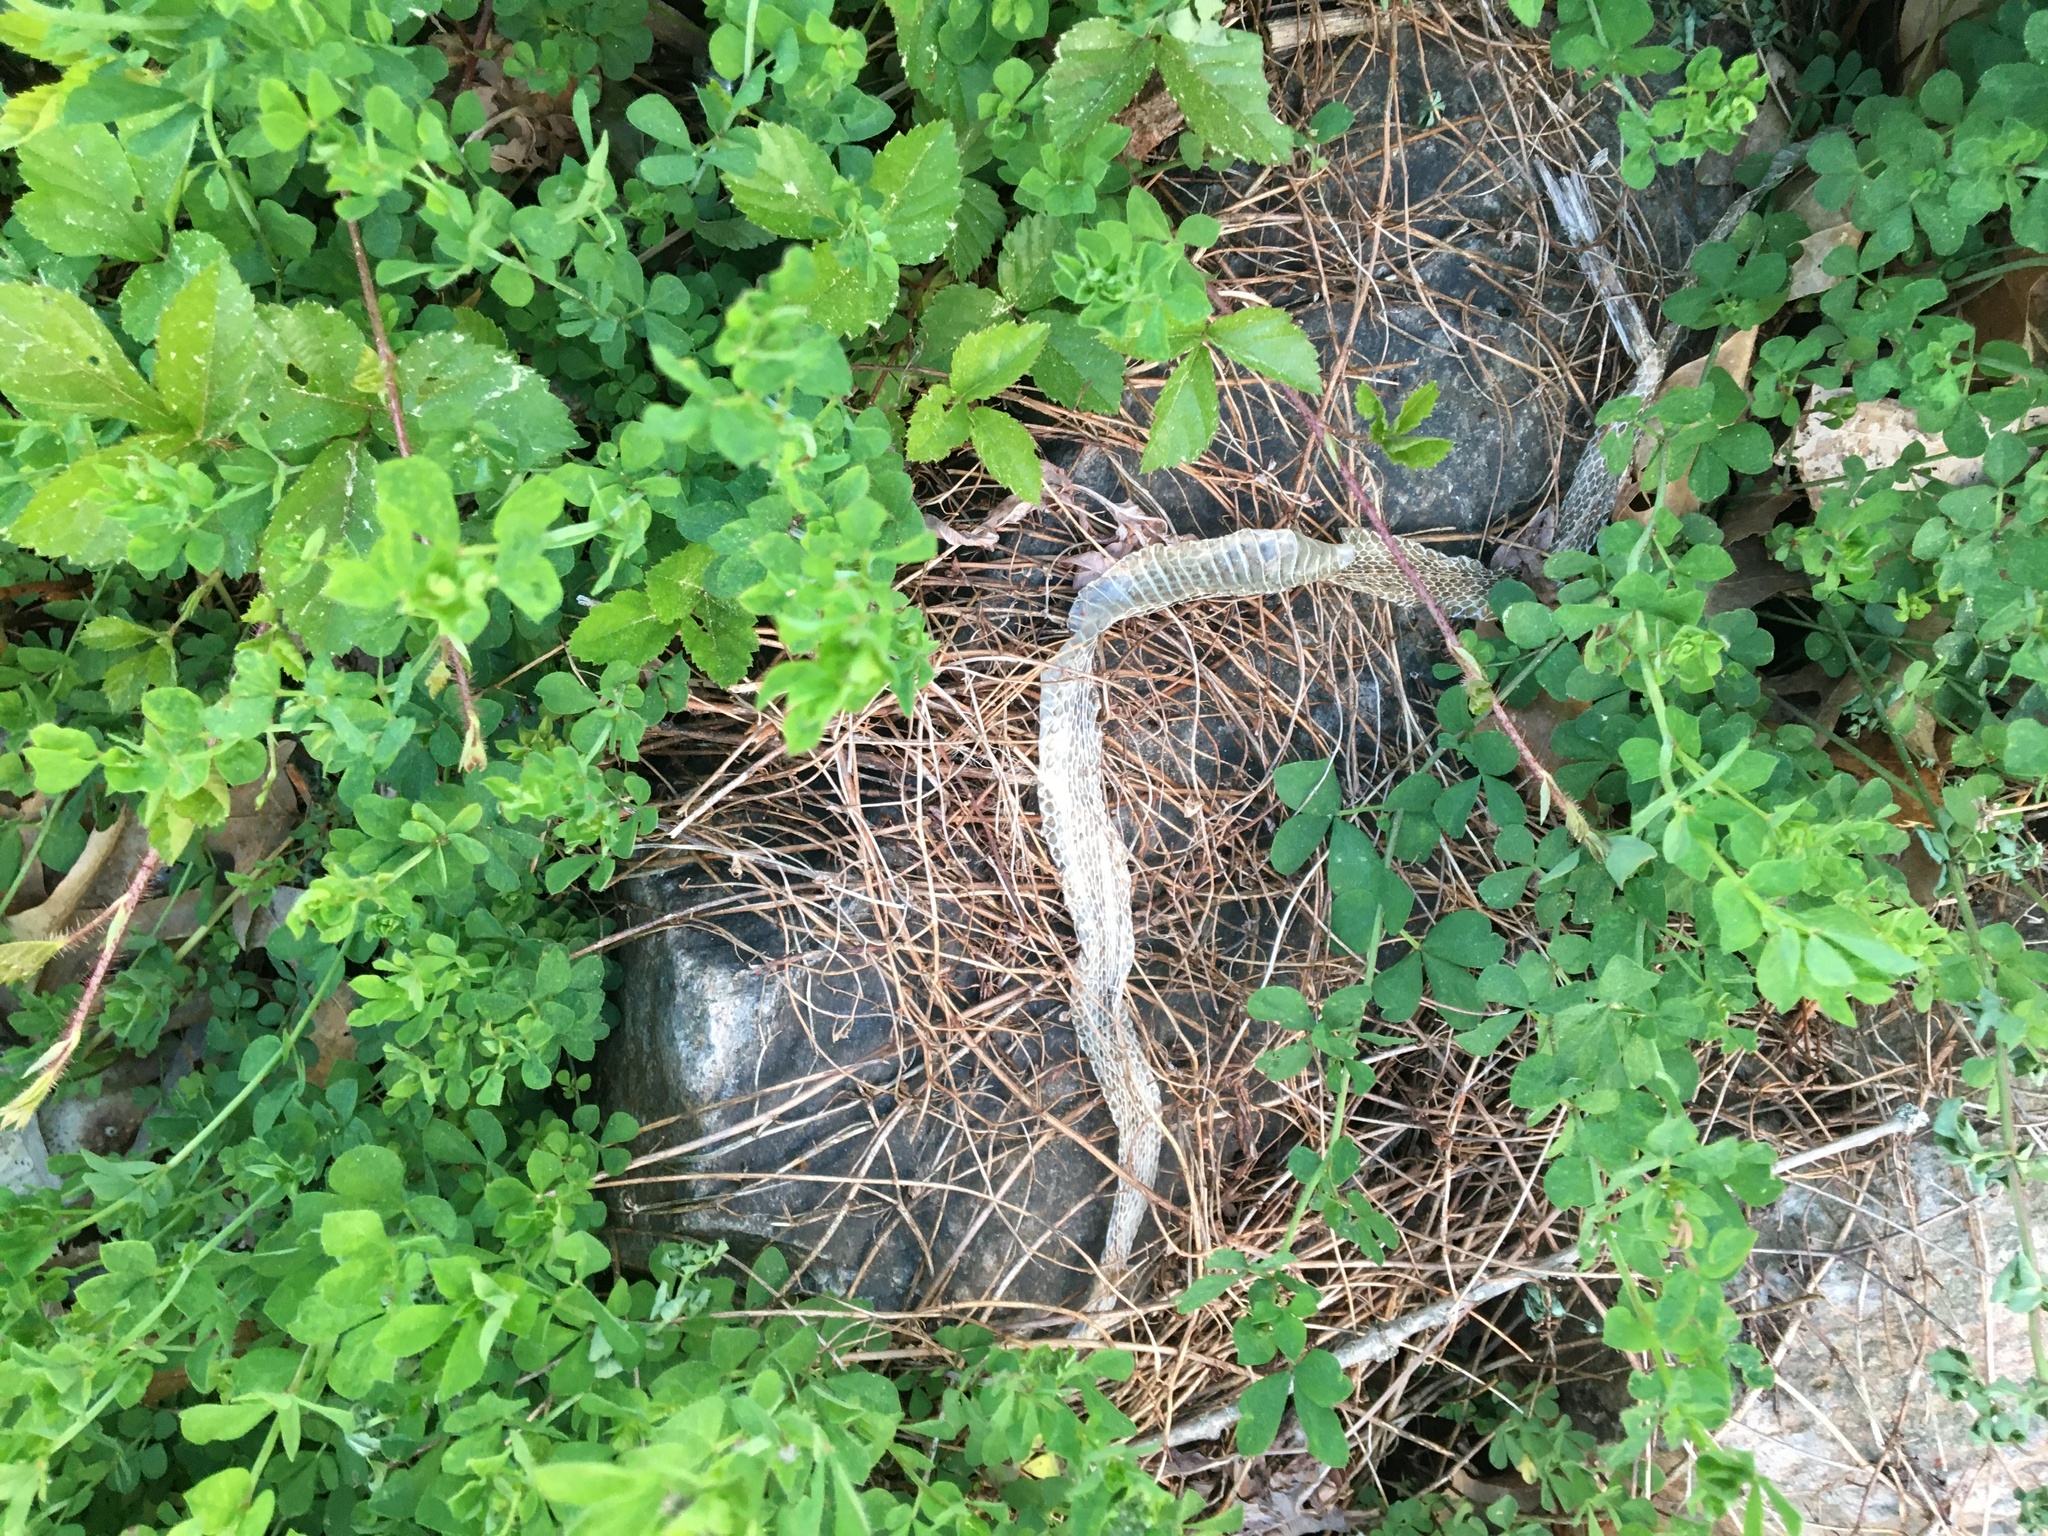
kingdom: Animalia
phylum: Chordata
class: Squamata
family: Colubridae
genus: Thamnophis
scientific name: Thamnophis sirtalis
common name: Common garter snake
